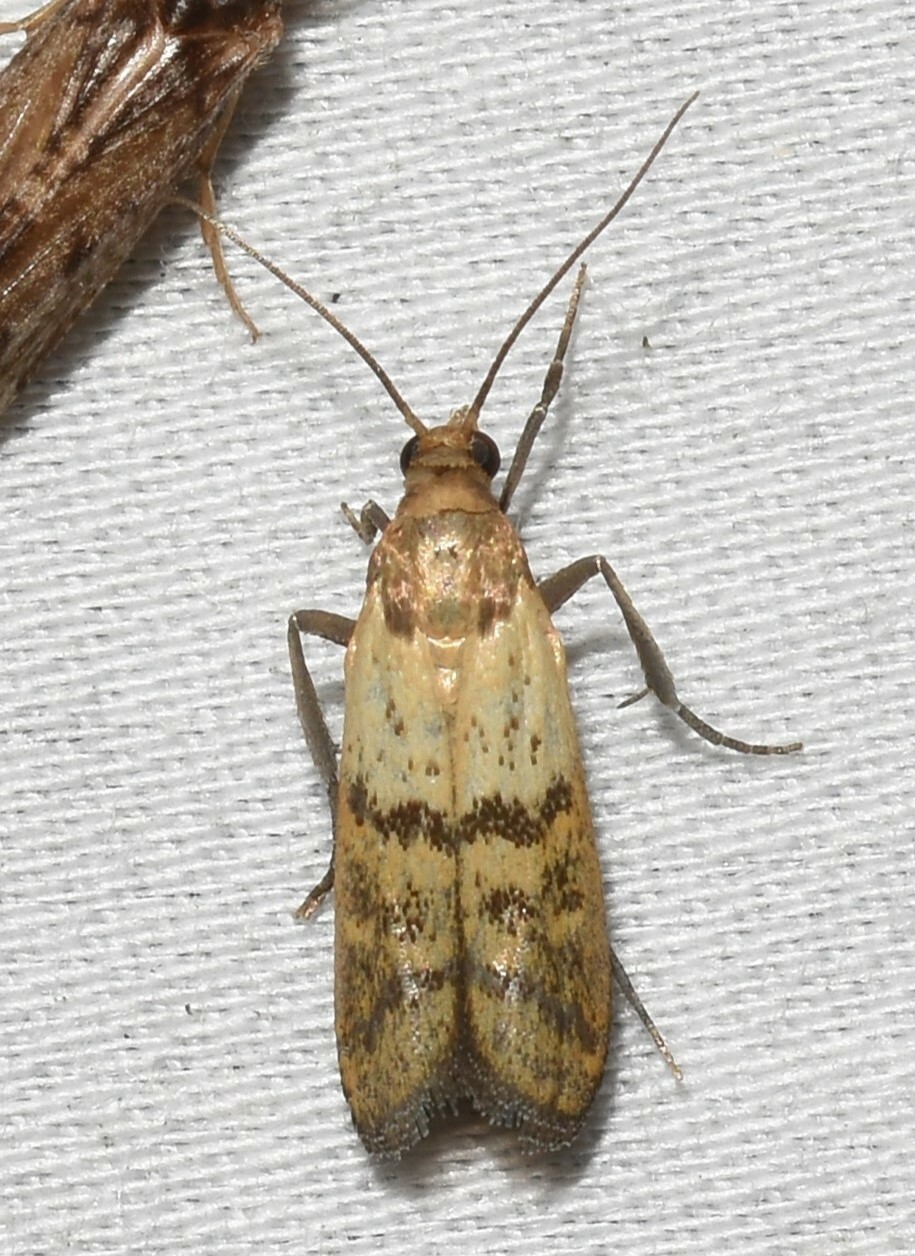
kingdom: Animalia
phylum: Arthropoda
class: Insecta
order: Lepidoptera
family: Pyralidae
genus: Plodia
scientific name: Plodia interpunctella
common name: Indian meal moth
